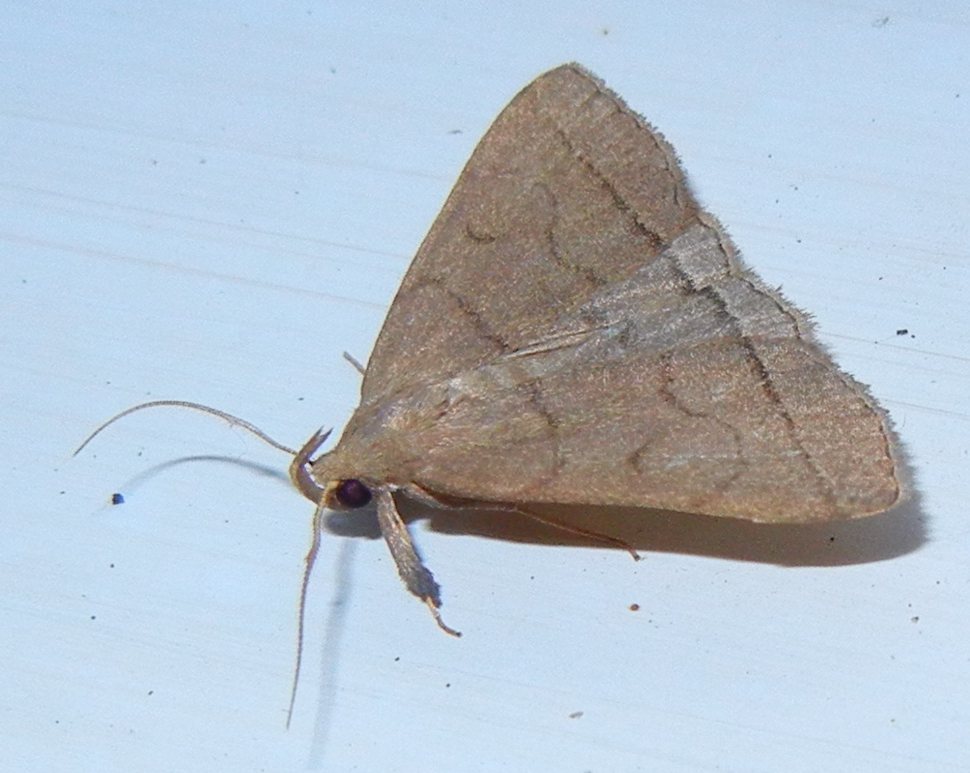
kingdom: Animalia
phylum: Arthropoda
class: Insecta
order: Lepidoptera
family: Erebidae
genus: Herminia
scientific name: Herminia tarsipennalis
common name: Fan-foot
